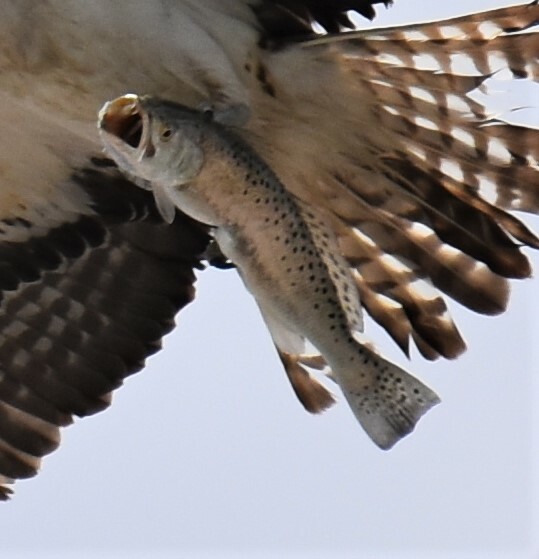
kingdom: Animalia
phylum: Chordata
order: Perciformes
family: Sciaenidae
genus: Cynoscion
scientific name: Cynoscion nebulosus
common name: Spotted seatrout
